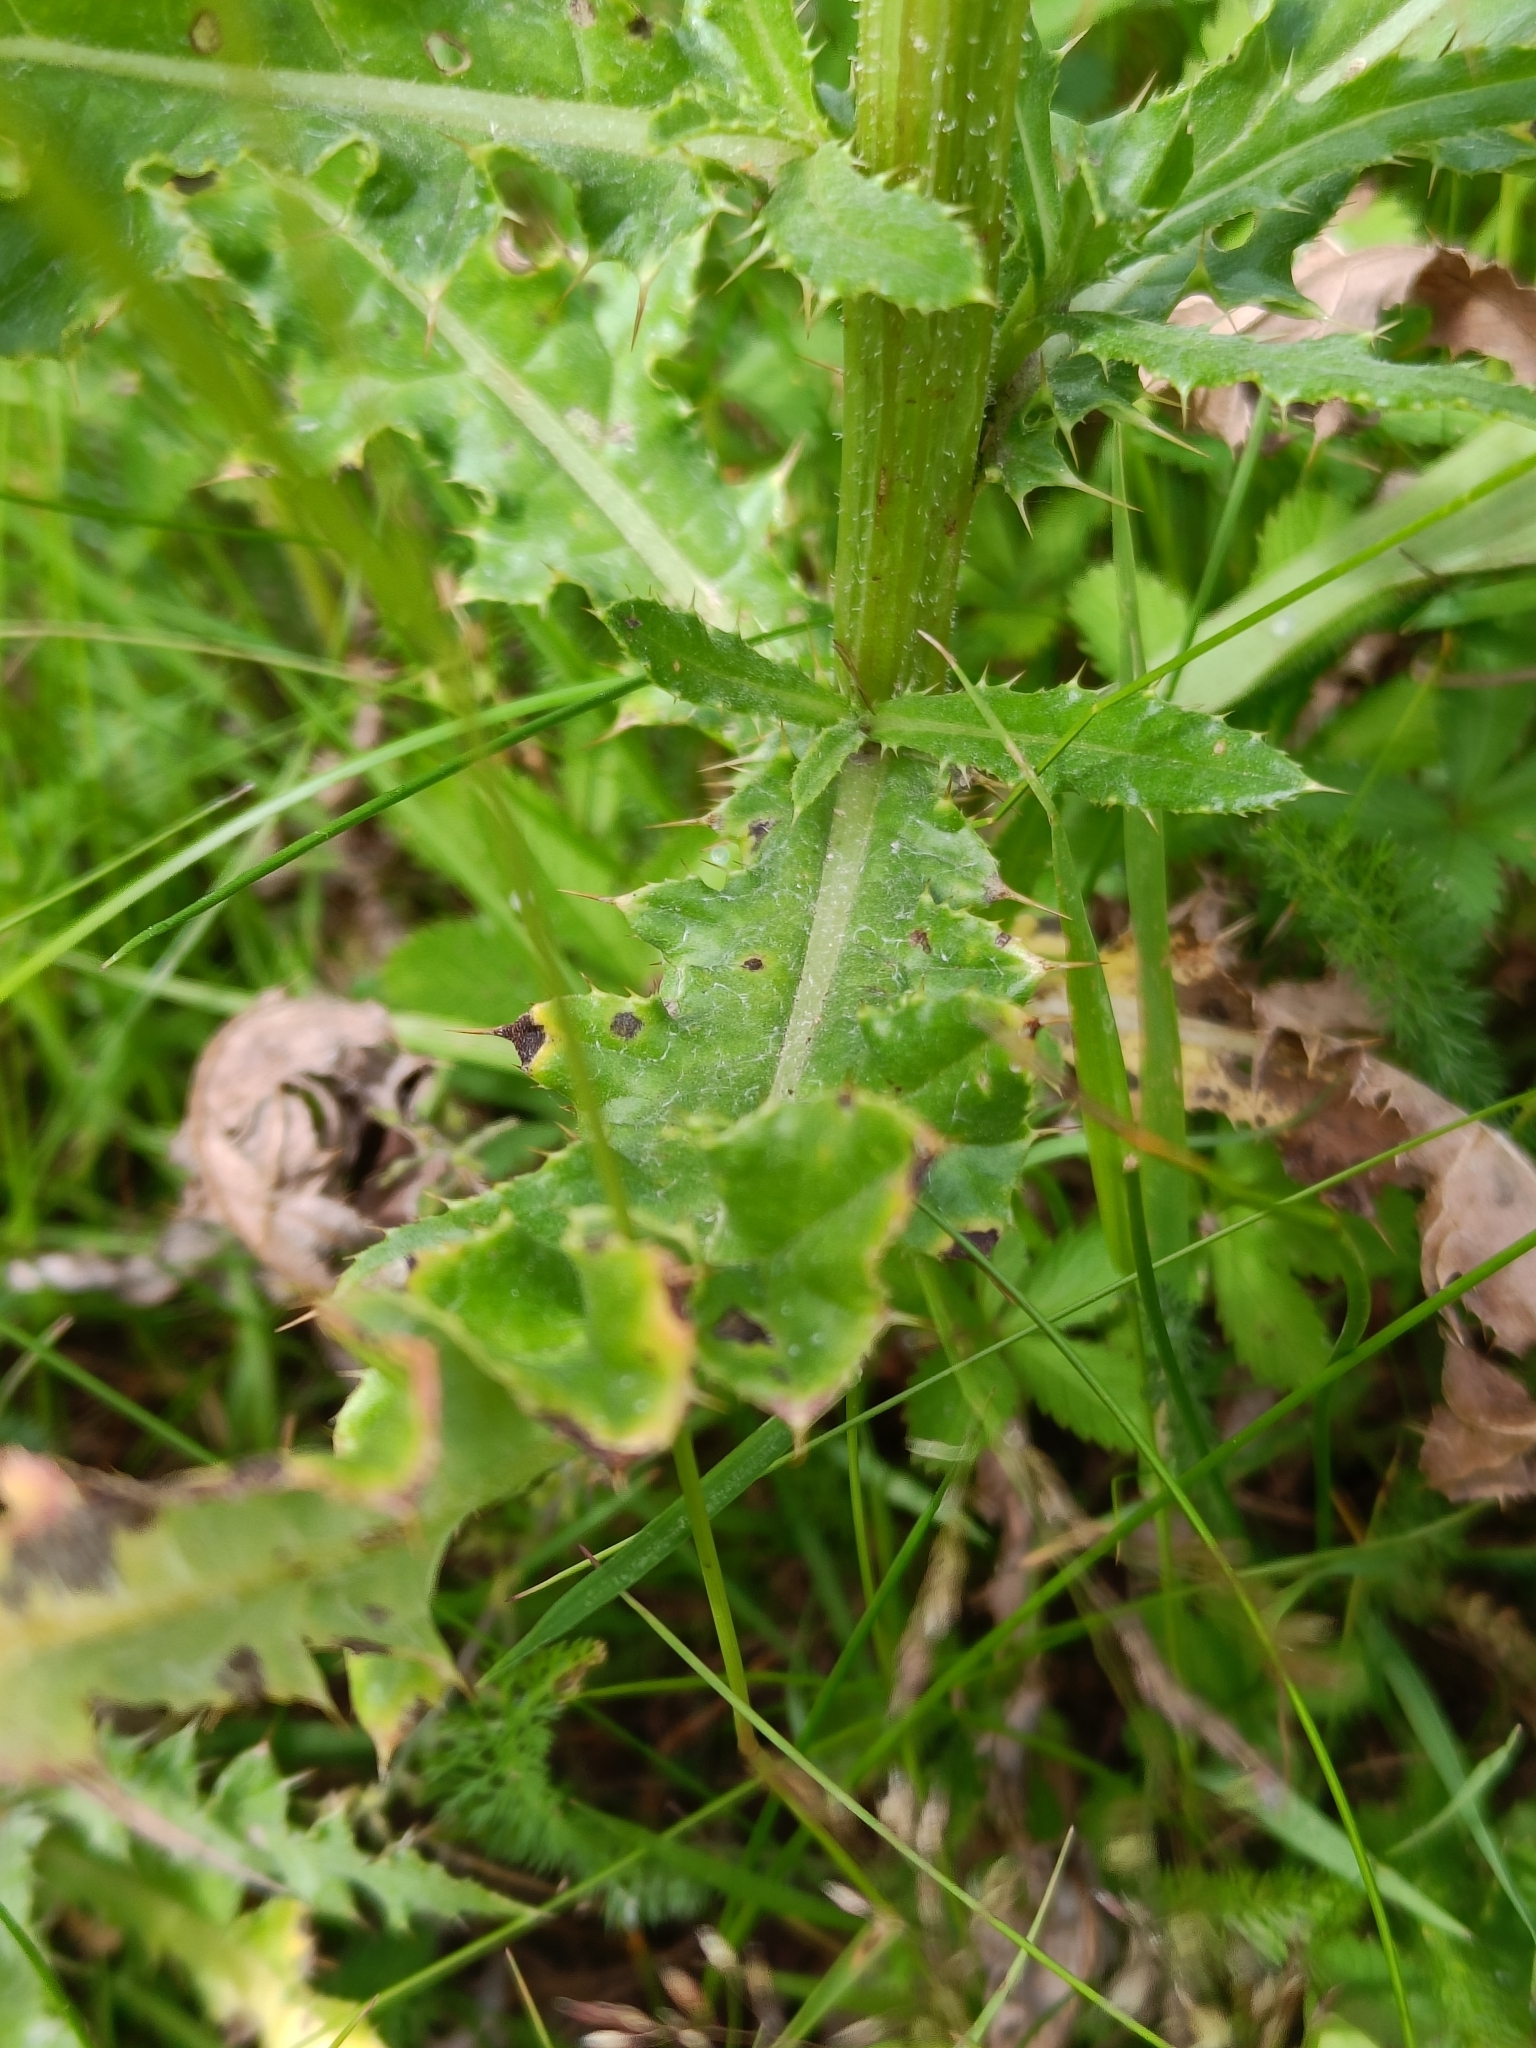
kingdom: Plantae
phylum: Tracheophyta
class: Magnoliopsida
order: Asterales
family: Asteraceae
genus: Cirsium
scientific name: Cirsium arvense
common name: Creeping thistle
